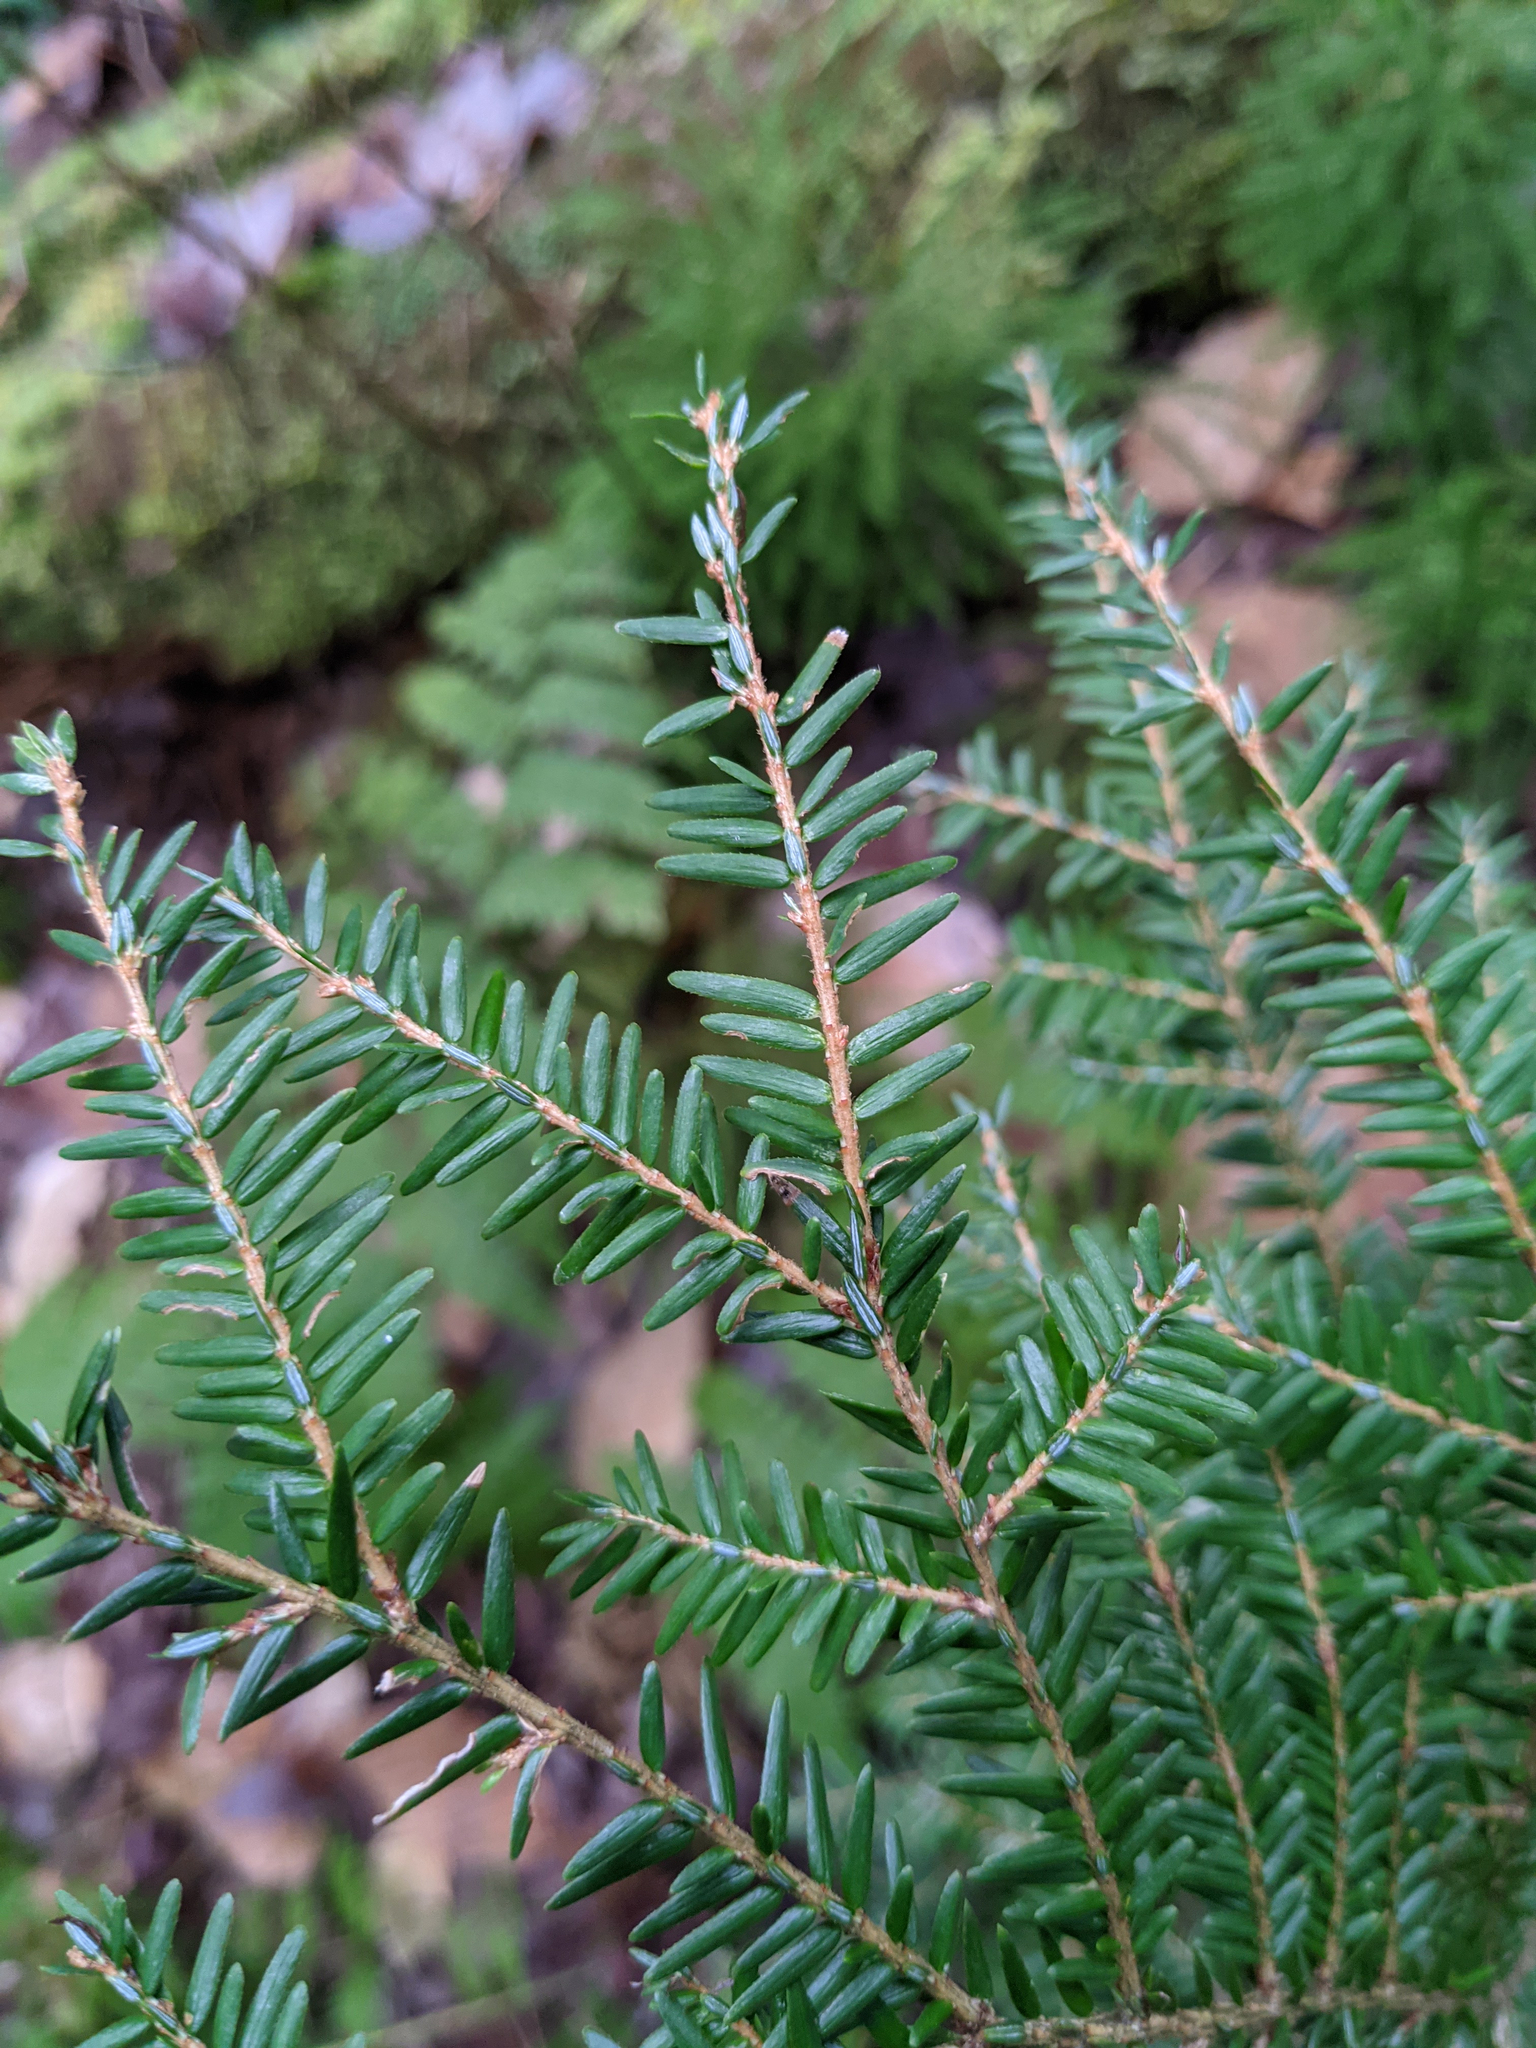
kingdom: Plantae
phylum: Tracheophyta
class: Pinopsida
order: Pinales
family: Pinaceae
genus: Tsuga
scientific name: Tsuga canadensis
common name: Eastern hemlock
